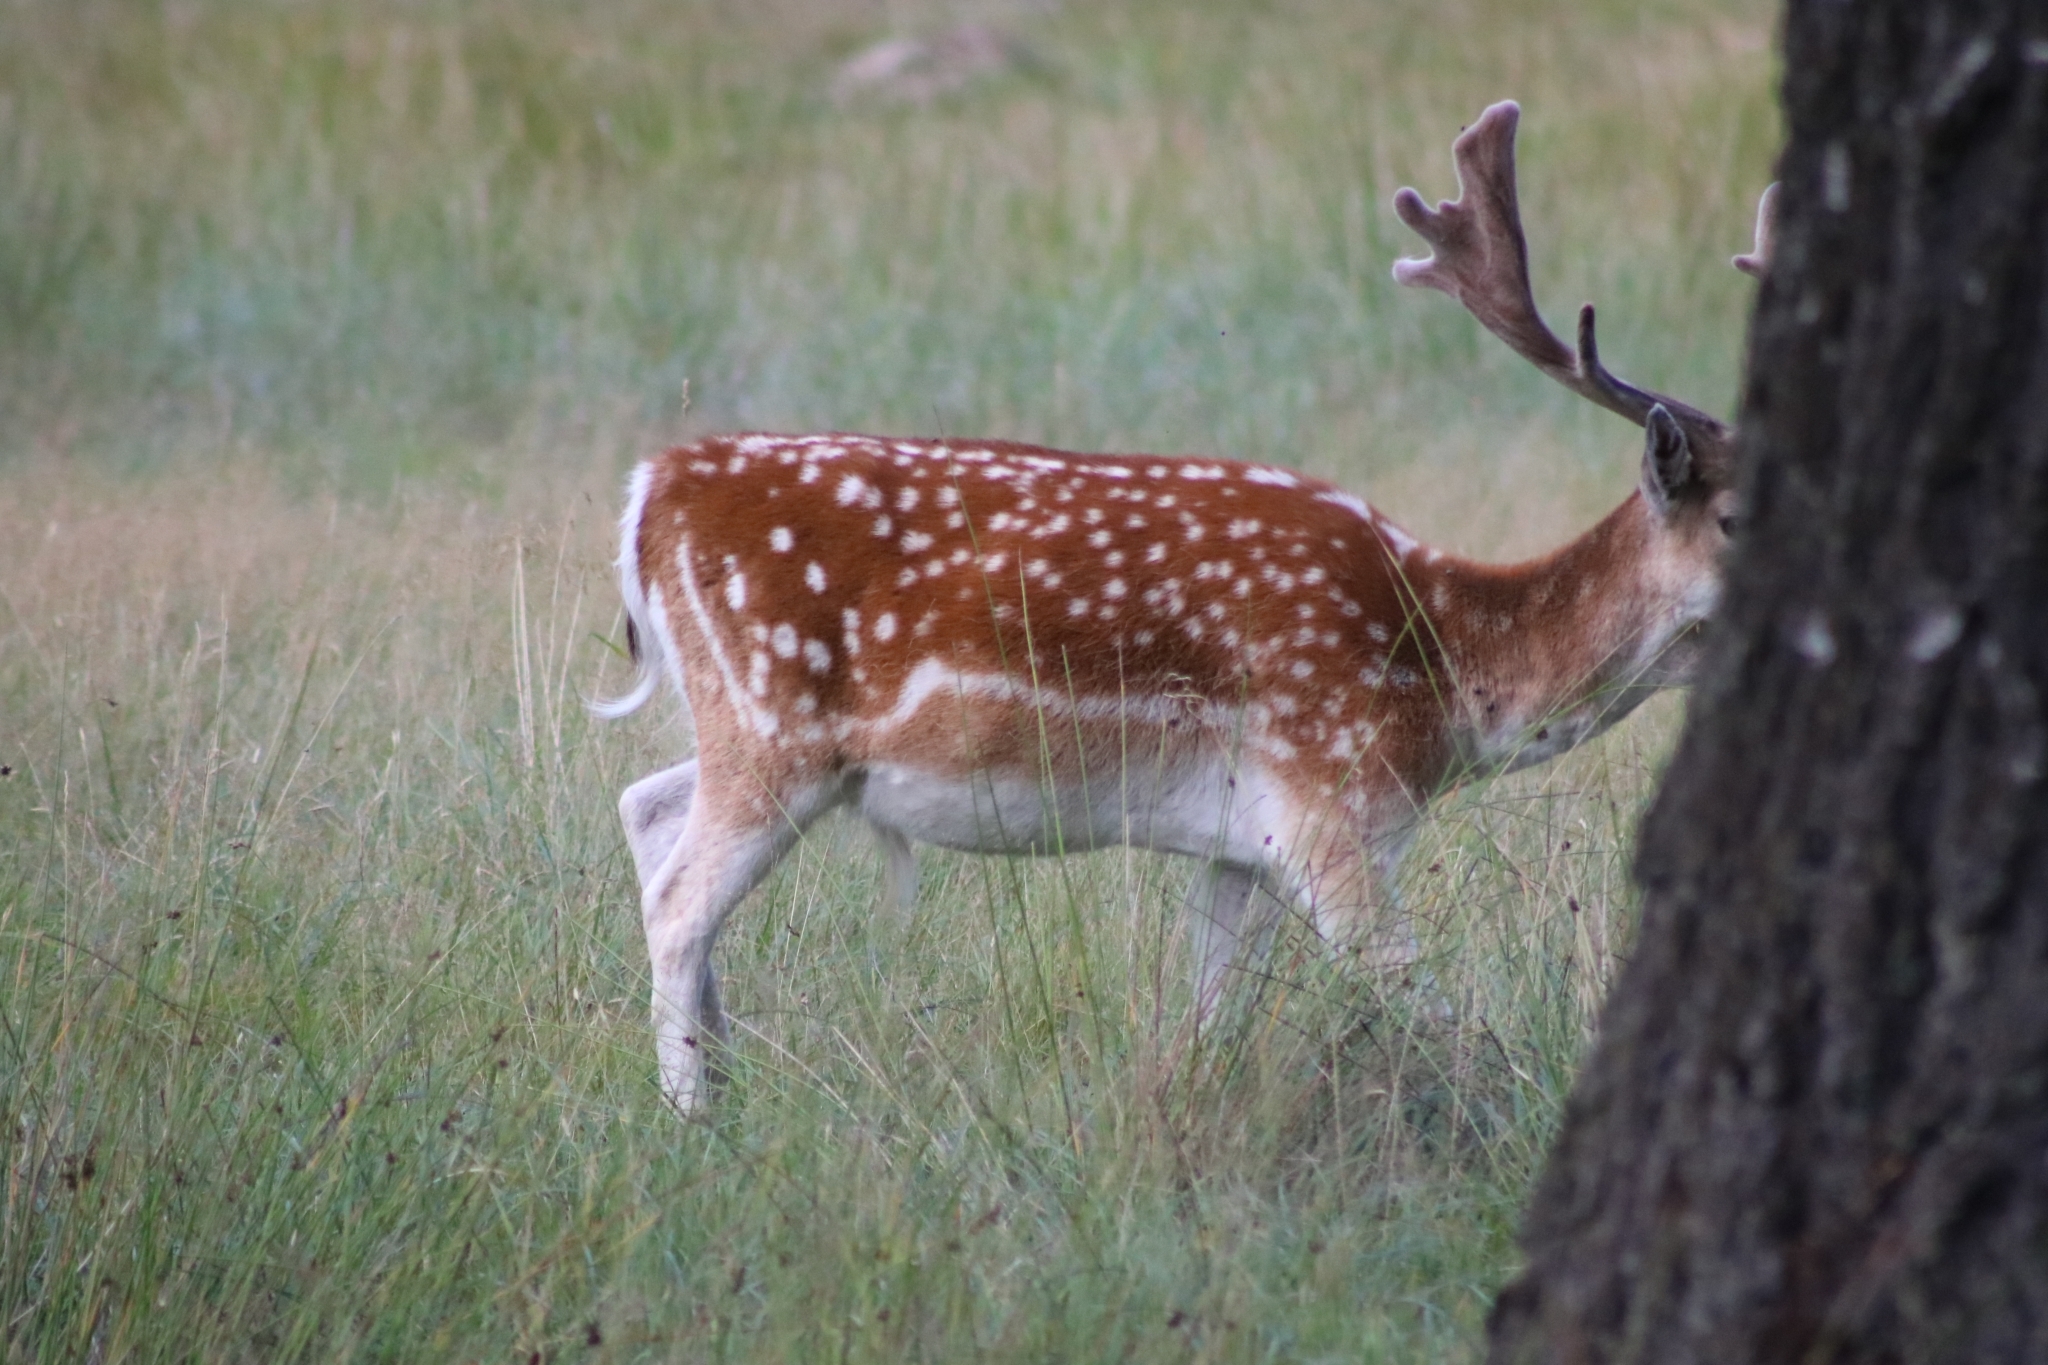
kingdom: Animalia
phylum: Chordata
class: Mammalia
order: Artiodactyla
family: Cervidae
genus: Dama
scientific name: Dama dama
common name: Fallow deer
